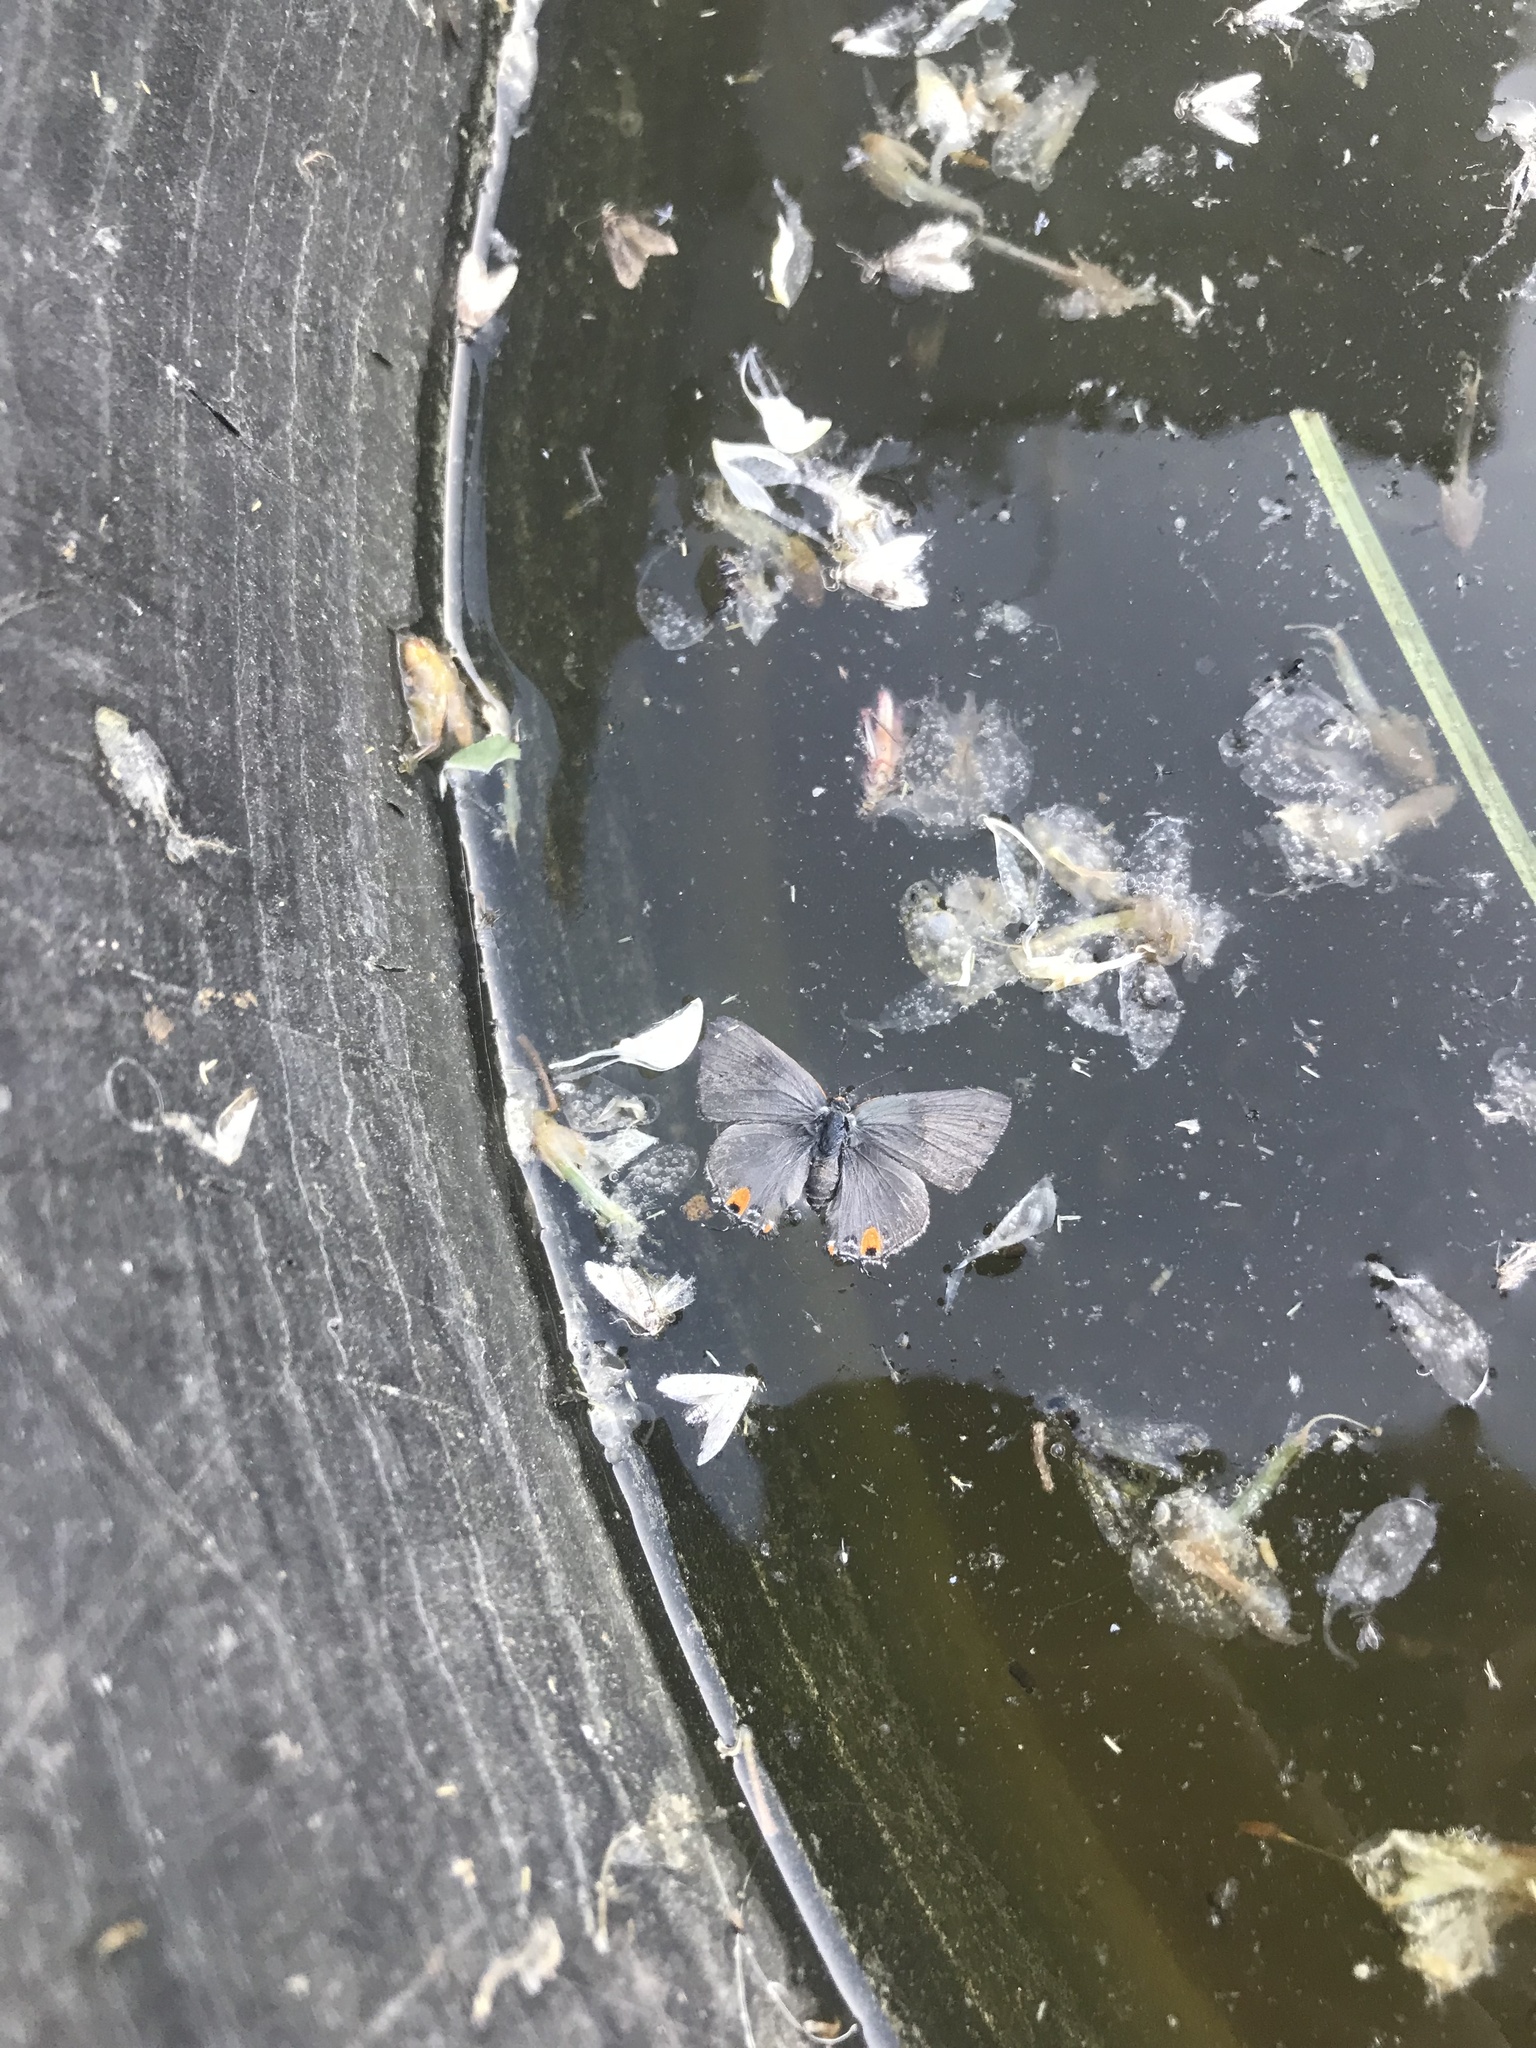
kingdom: Animalia
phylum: Arthropoda
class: Insecta
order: Lepidoptera
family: Lycaenidae
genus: Strymon
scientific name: Strymon melinus
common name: Gray hairstreak
